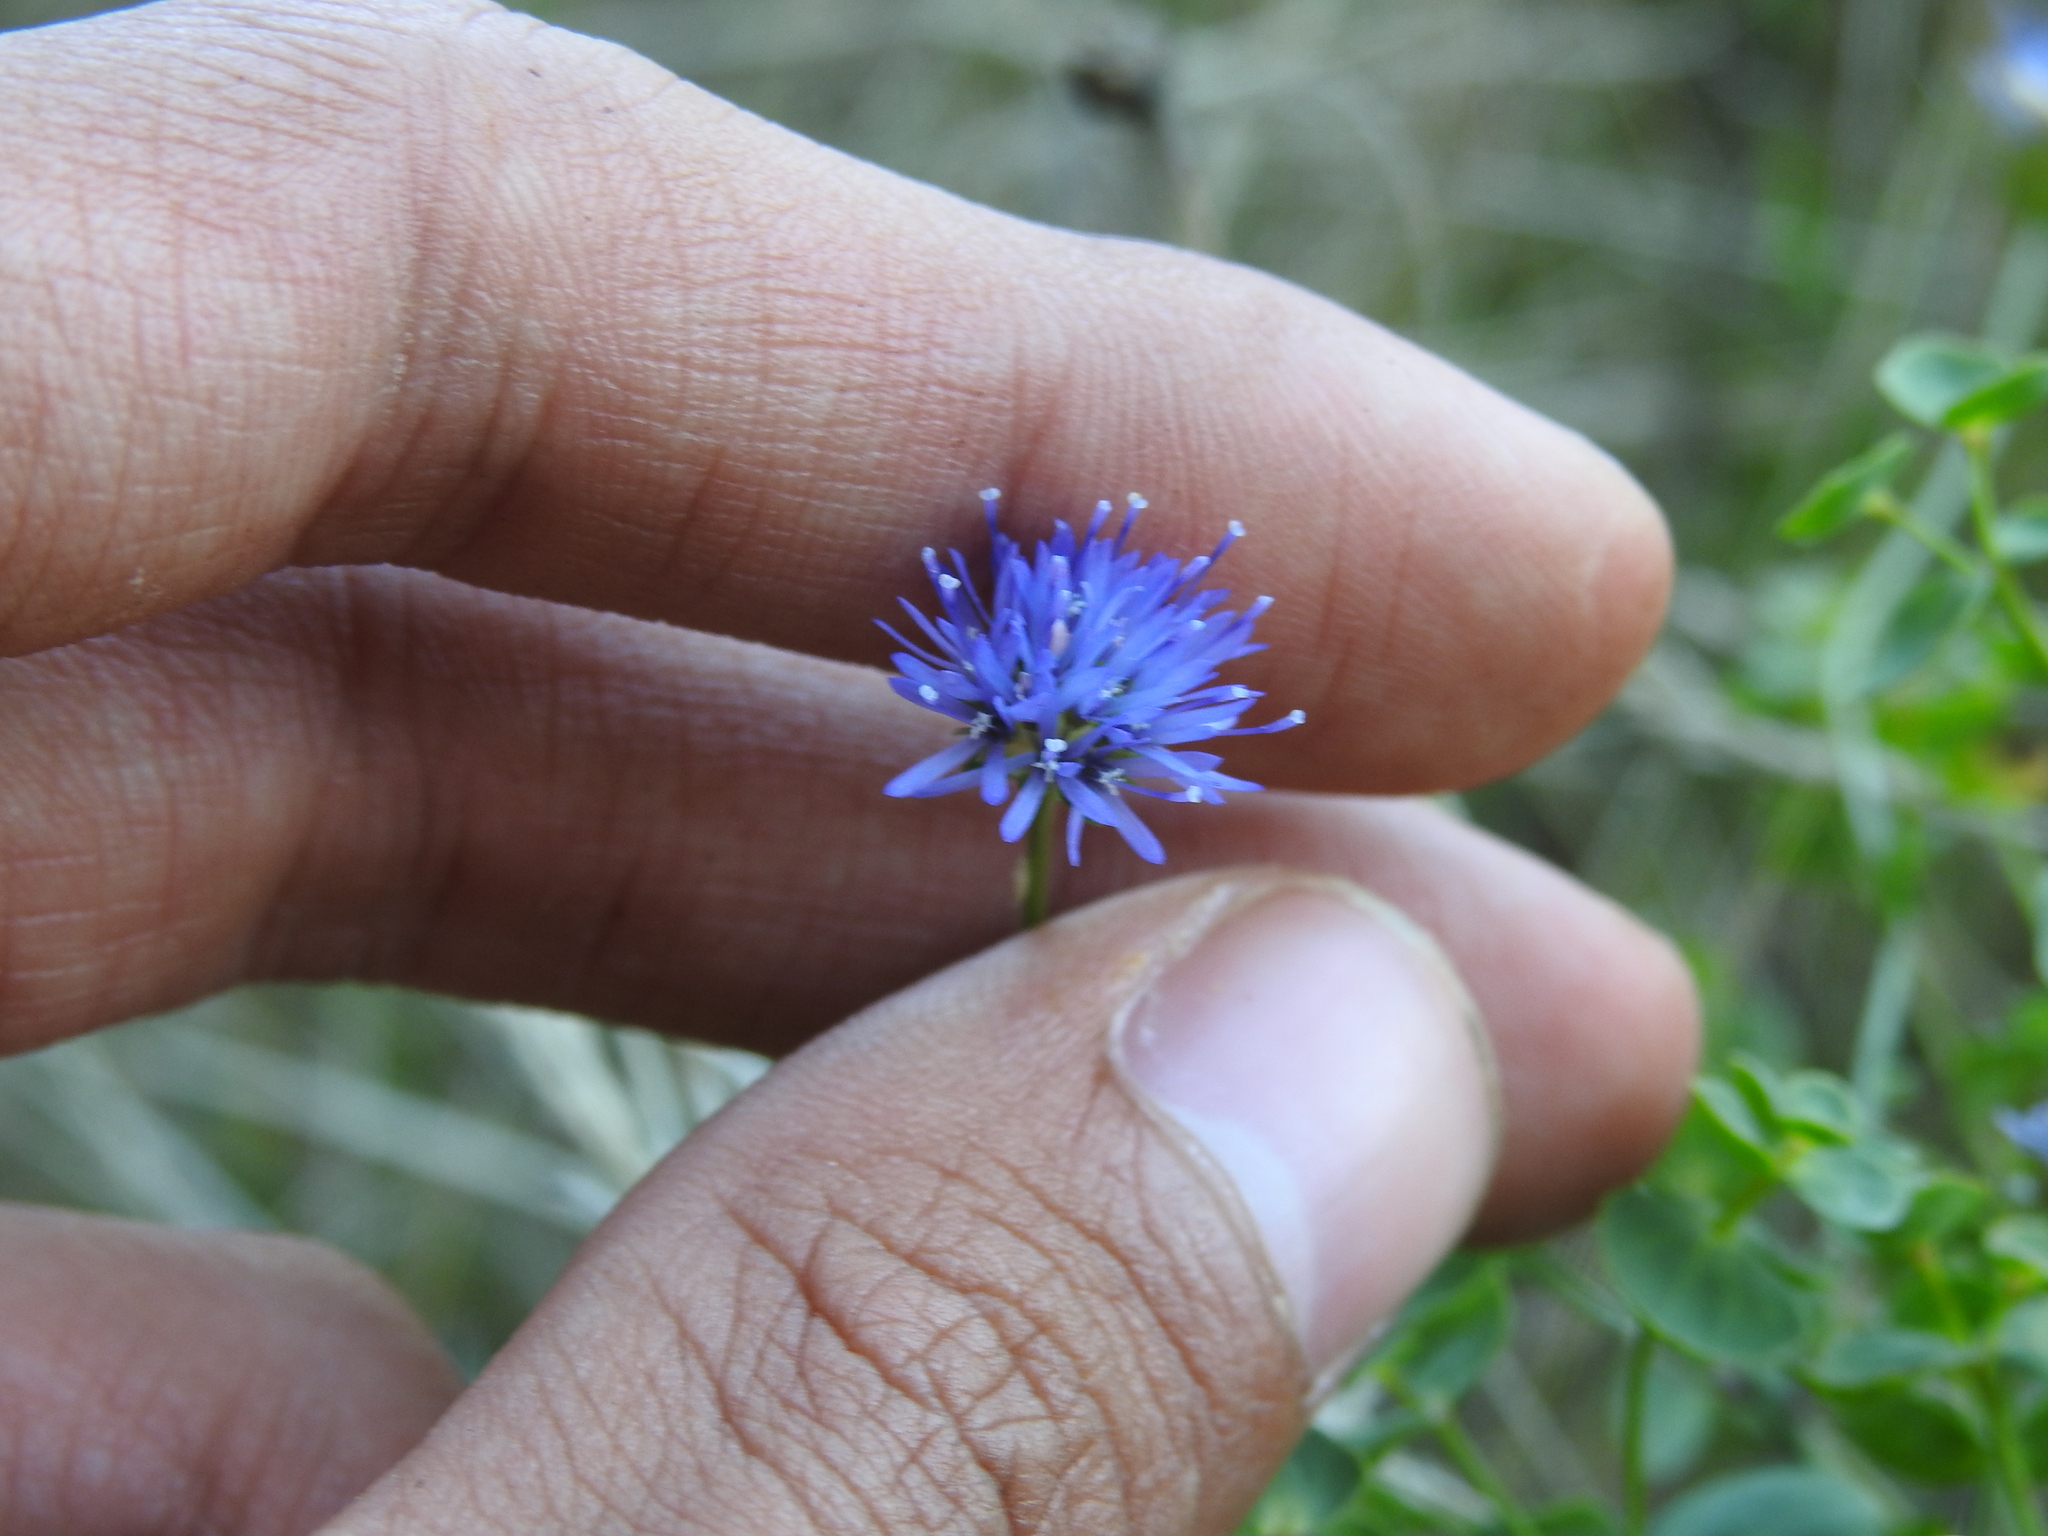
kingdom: Plantae
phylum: Tracheophyta
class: Magnoliopsida
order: Asterales
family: Campanulaceae
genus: Jasione
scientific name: Jasione montana
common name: Sheep's-bit
